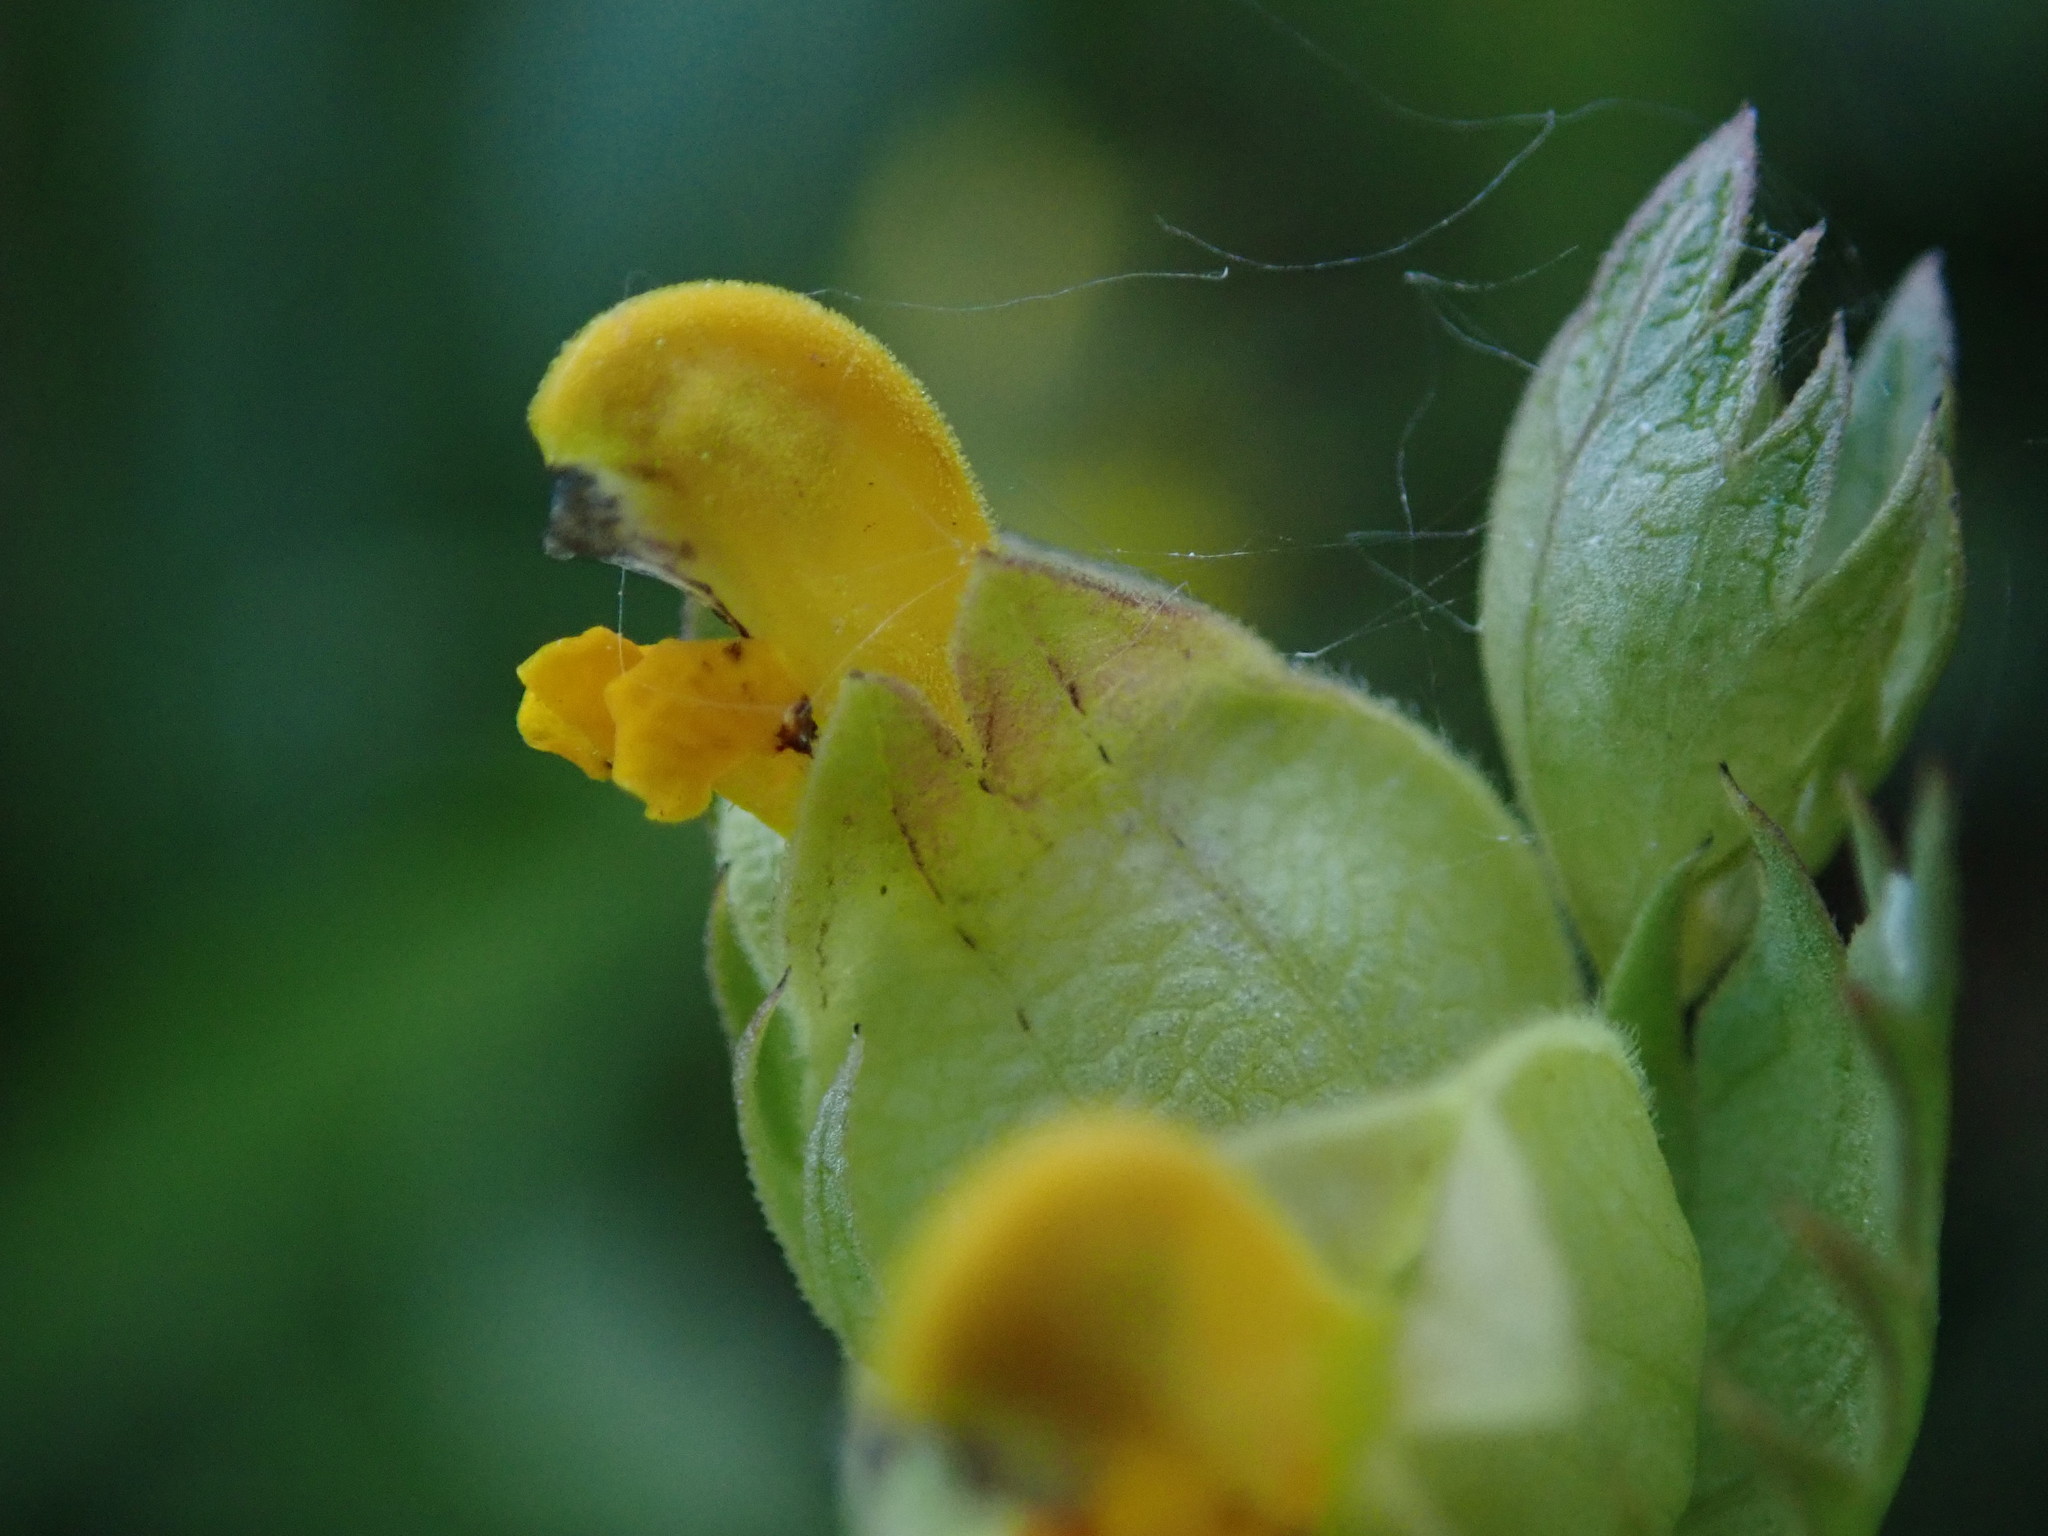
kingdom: Plantae
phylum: Tracheophyta
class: Magnoliopsida
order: Lamiales
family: Orobanchaceae
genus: Rhinanthus
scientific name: Rhinanthus minor
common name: Yellow-rattle
